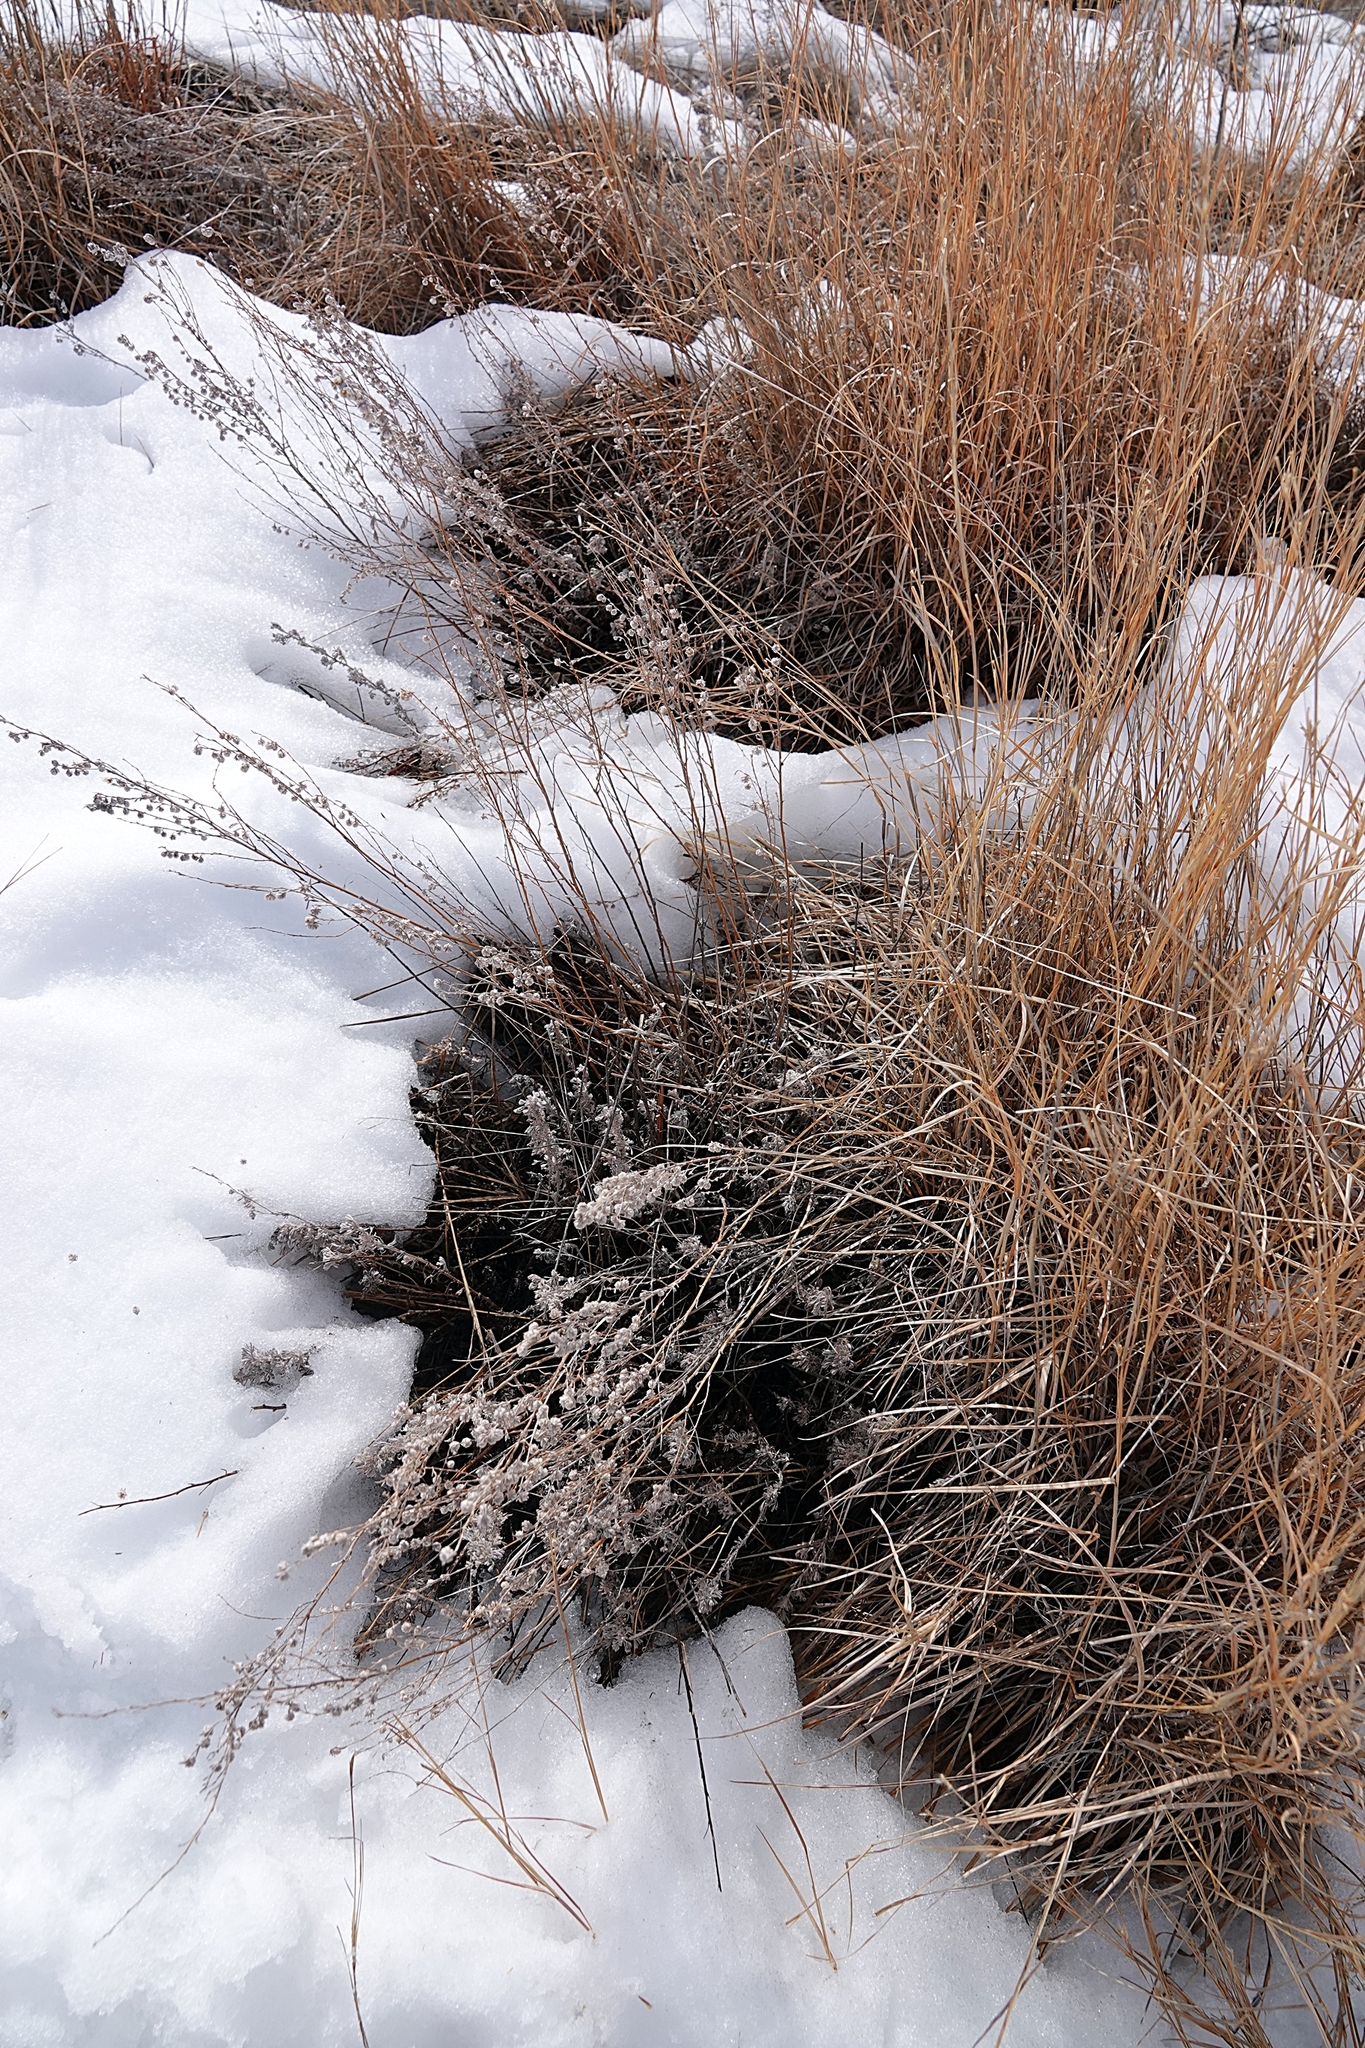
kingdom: Plantae
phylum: Tracheophyta
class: Magnoliopsida
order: Asterales
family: Asteraceae
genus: Artemisia
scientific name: Artemisia frigida
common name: Prairie sagewort
